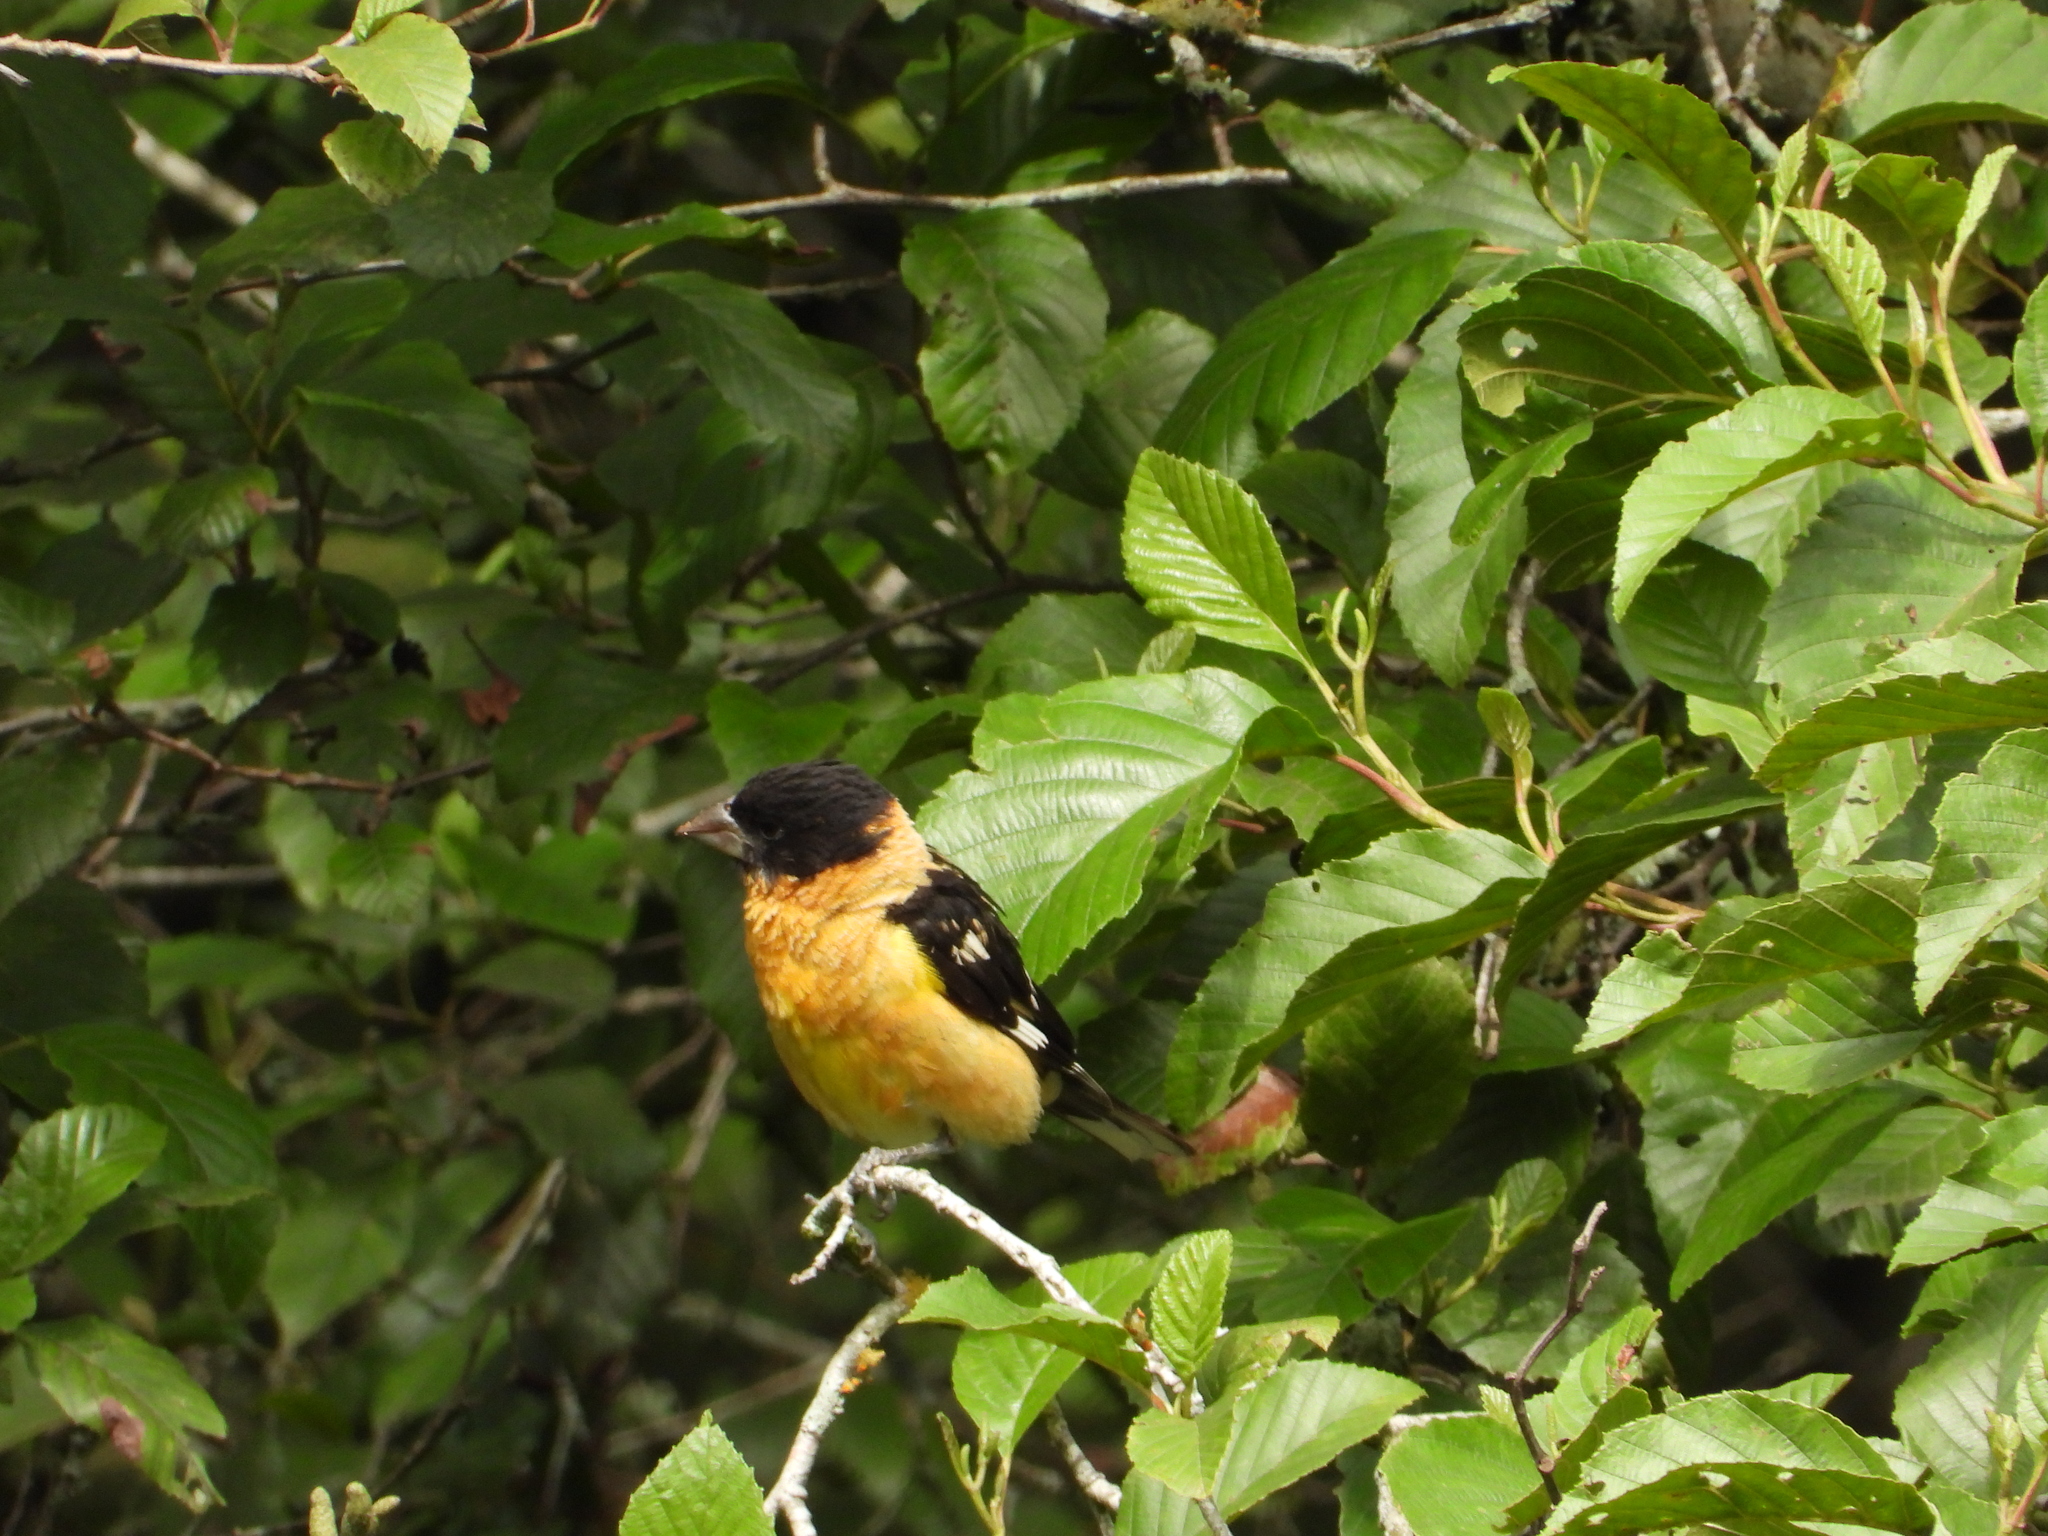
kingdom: Animalia
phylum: Chordata
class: Aves
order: Passeriformes
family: Cardinalidae
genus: Pheucticus
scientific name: Pheucticus melanocephalus
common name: Black-headed grosbeak
